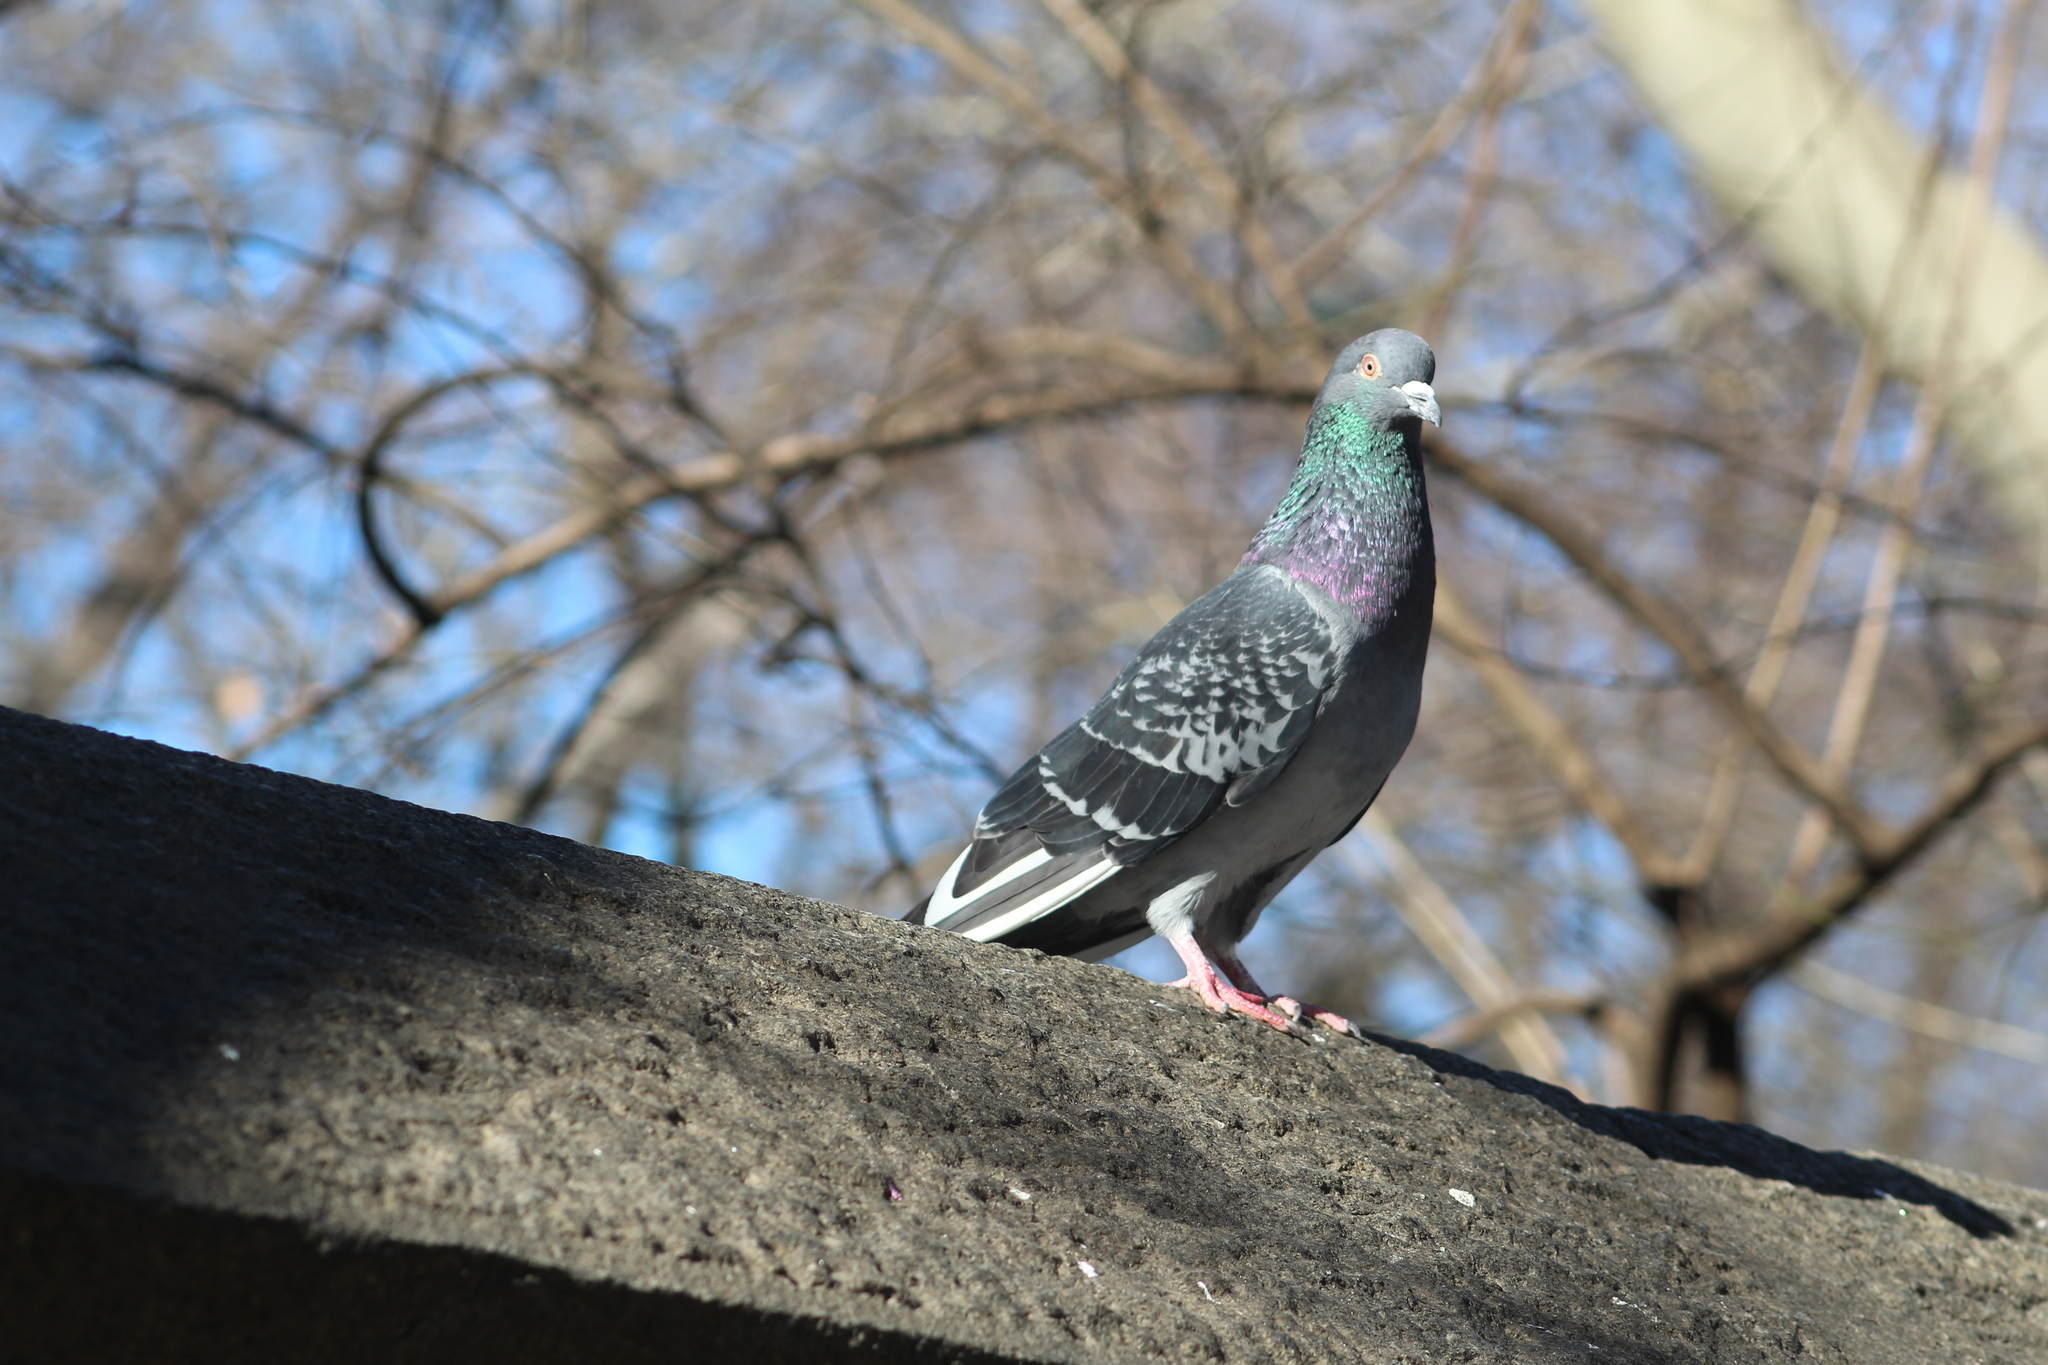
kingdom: Animalia
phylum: Chordata
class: Aves
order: Columbiformes
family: Columbidae
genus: Columba
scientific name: Columba livia
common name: Rock pigeon
